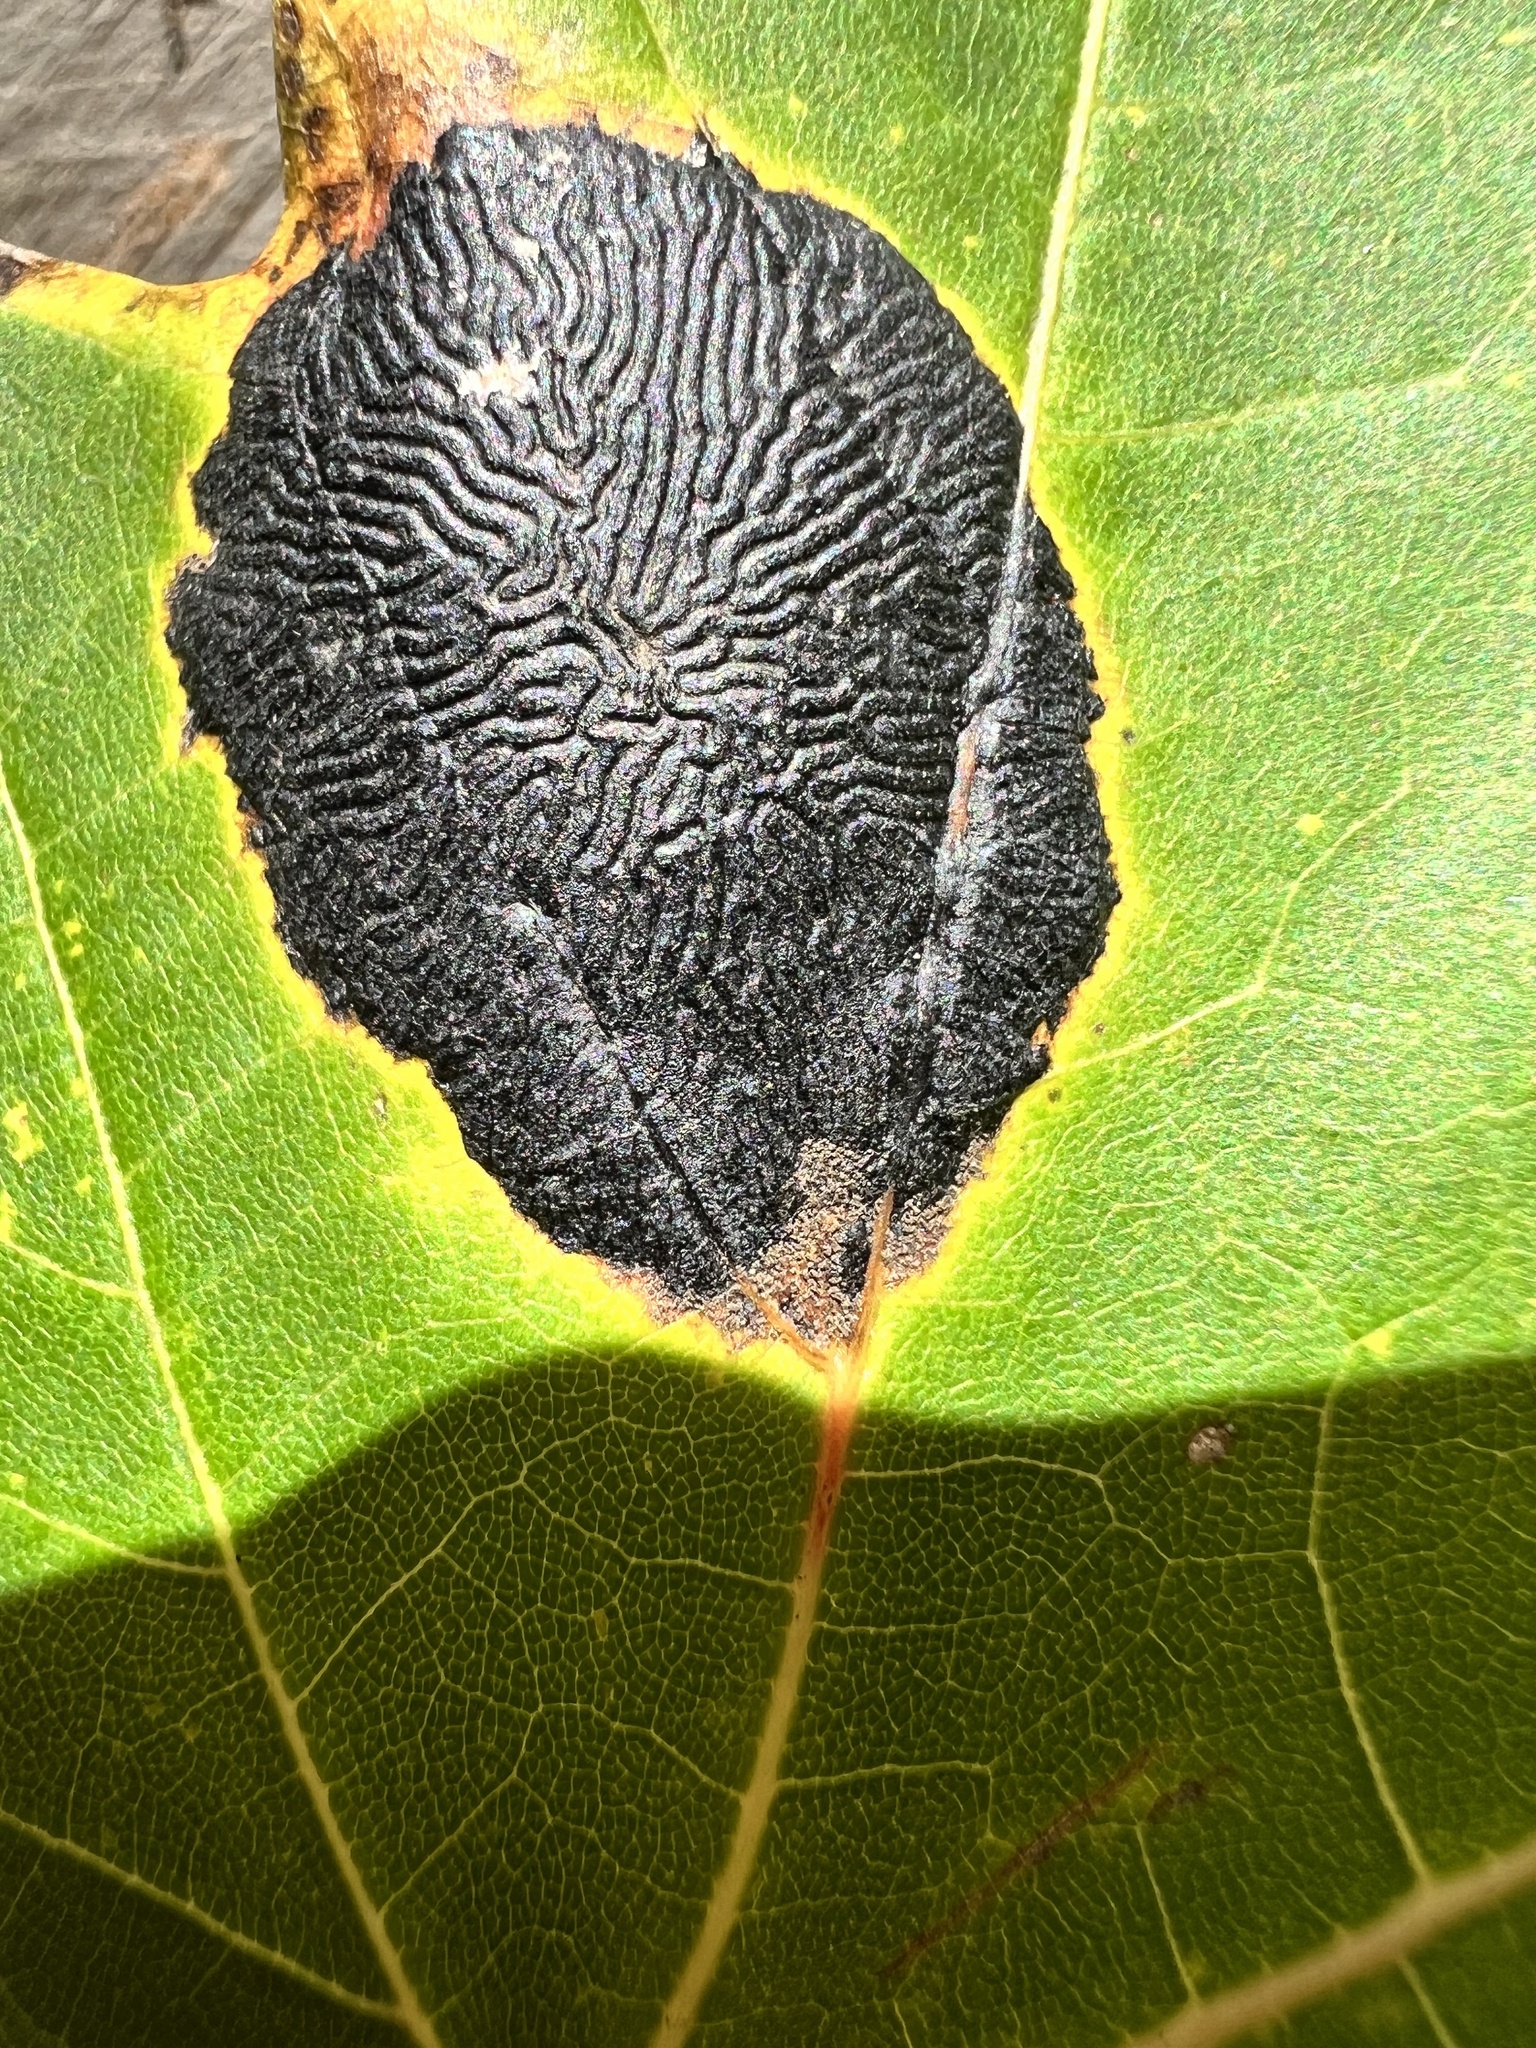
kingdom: Fungi
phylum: Ascomycota
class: Leotiomycetes
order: Rhytismatales
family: Rhytismataceae
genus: Rhytisma
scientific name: Rhytisma americanum
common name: American tar spot
